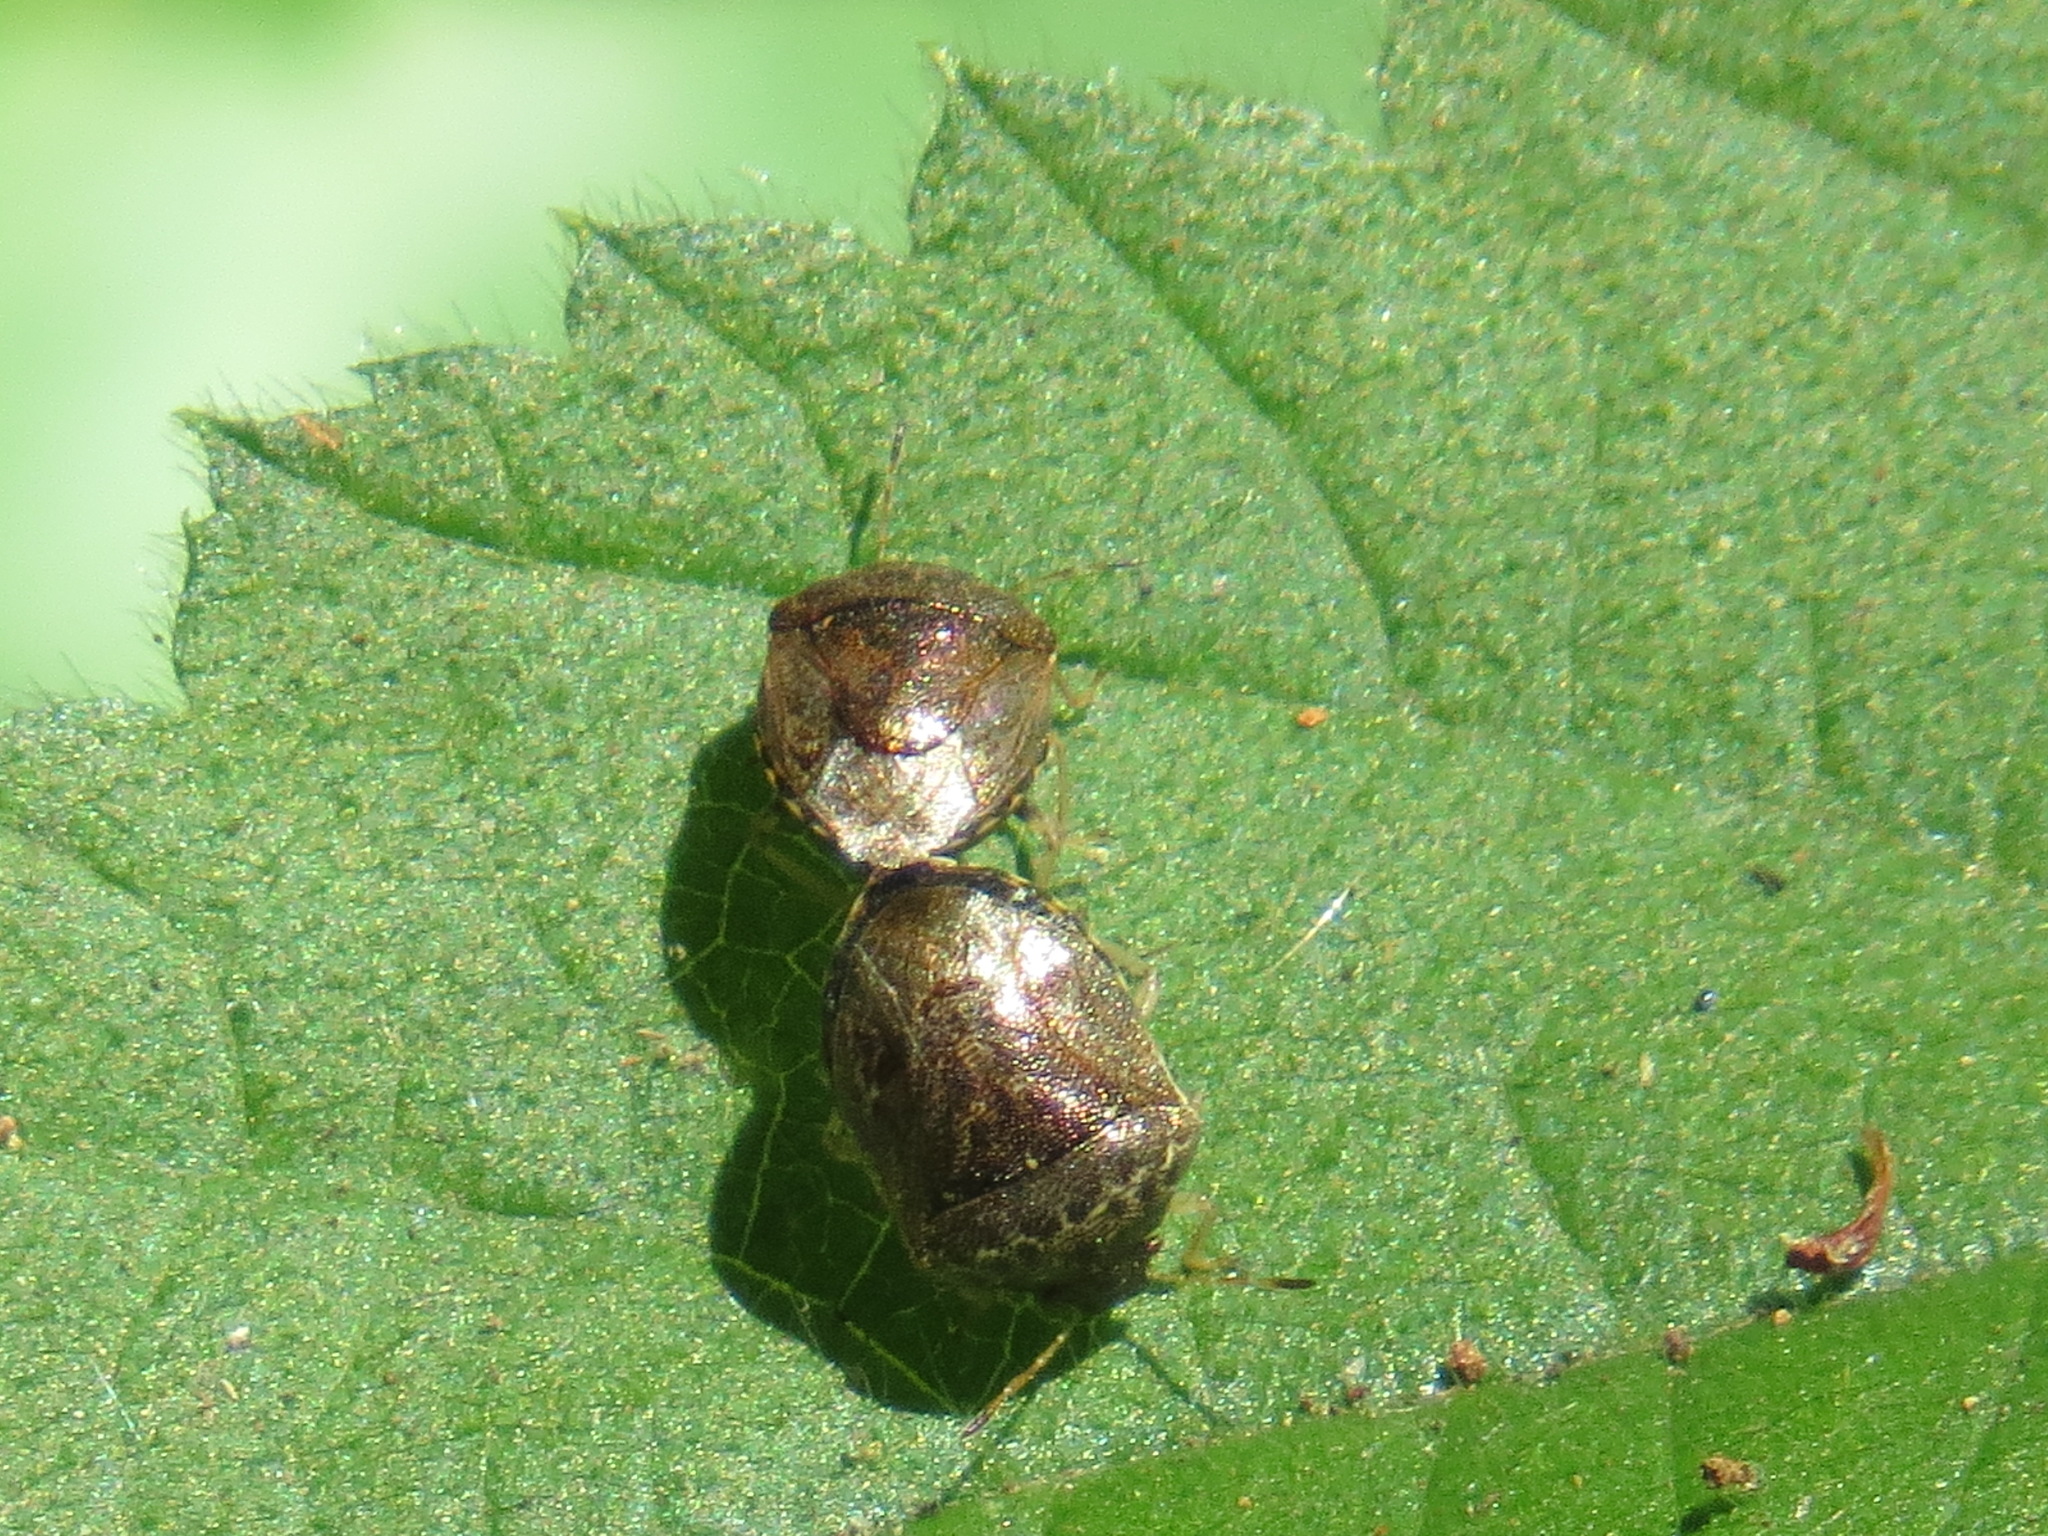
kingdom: Animalia
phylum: Arthropoda
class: Insecta
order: Hemiptera
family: Pentatomidae
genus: Cosmopepla
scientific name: Cosmopepla intergressus
